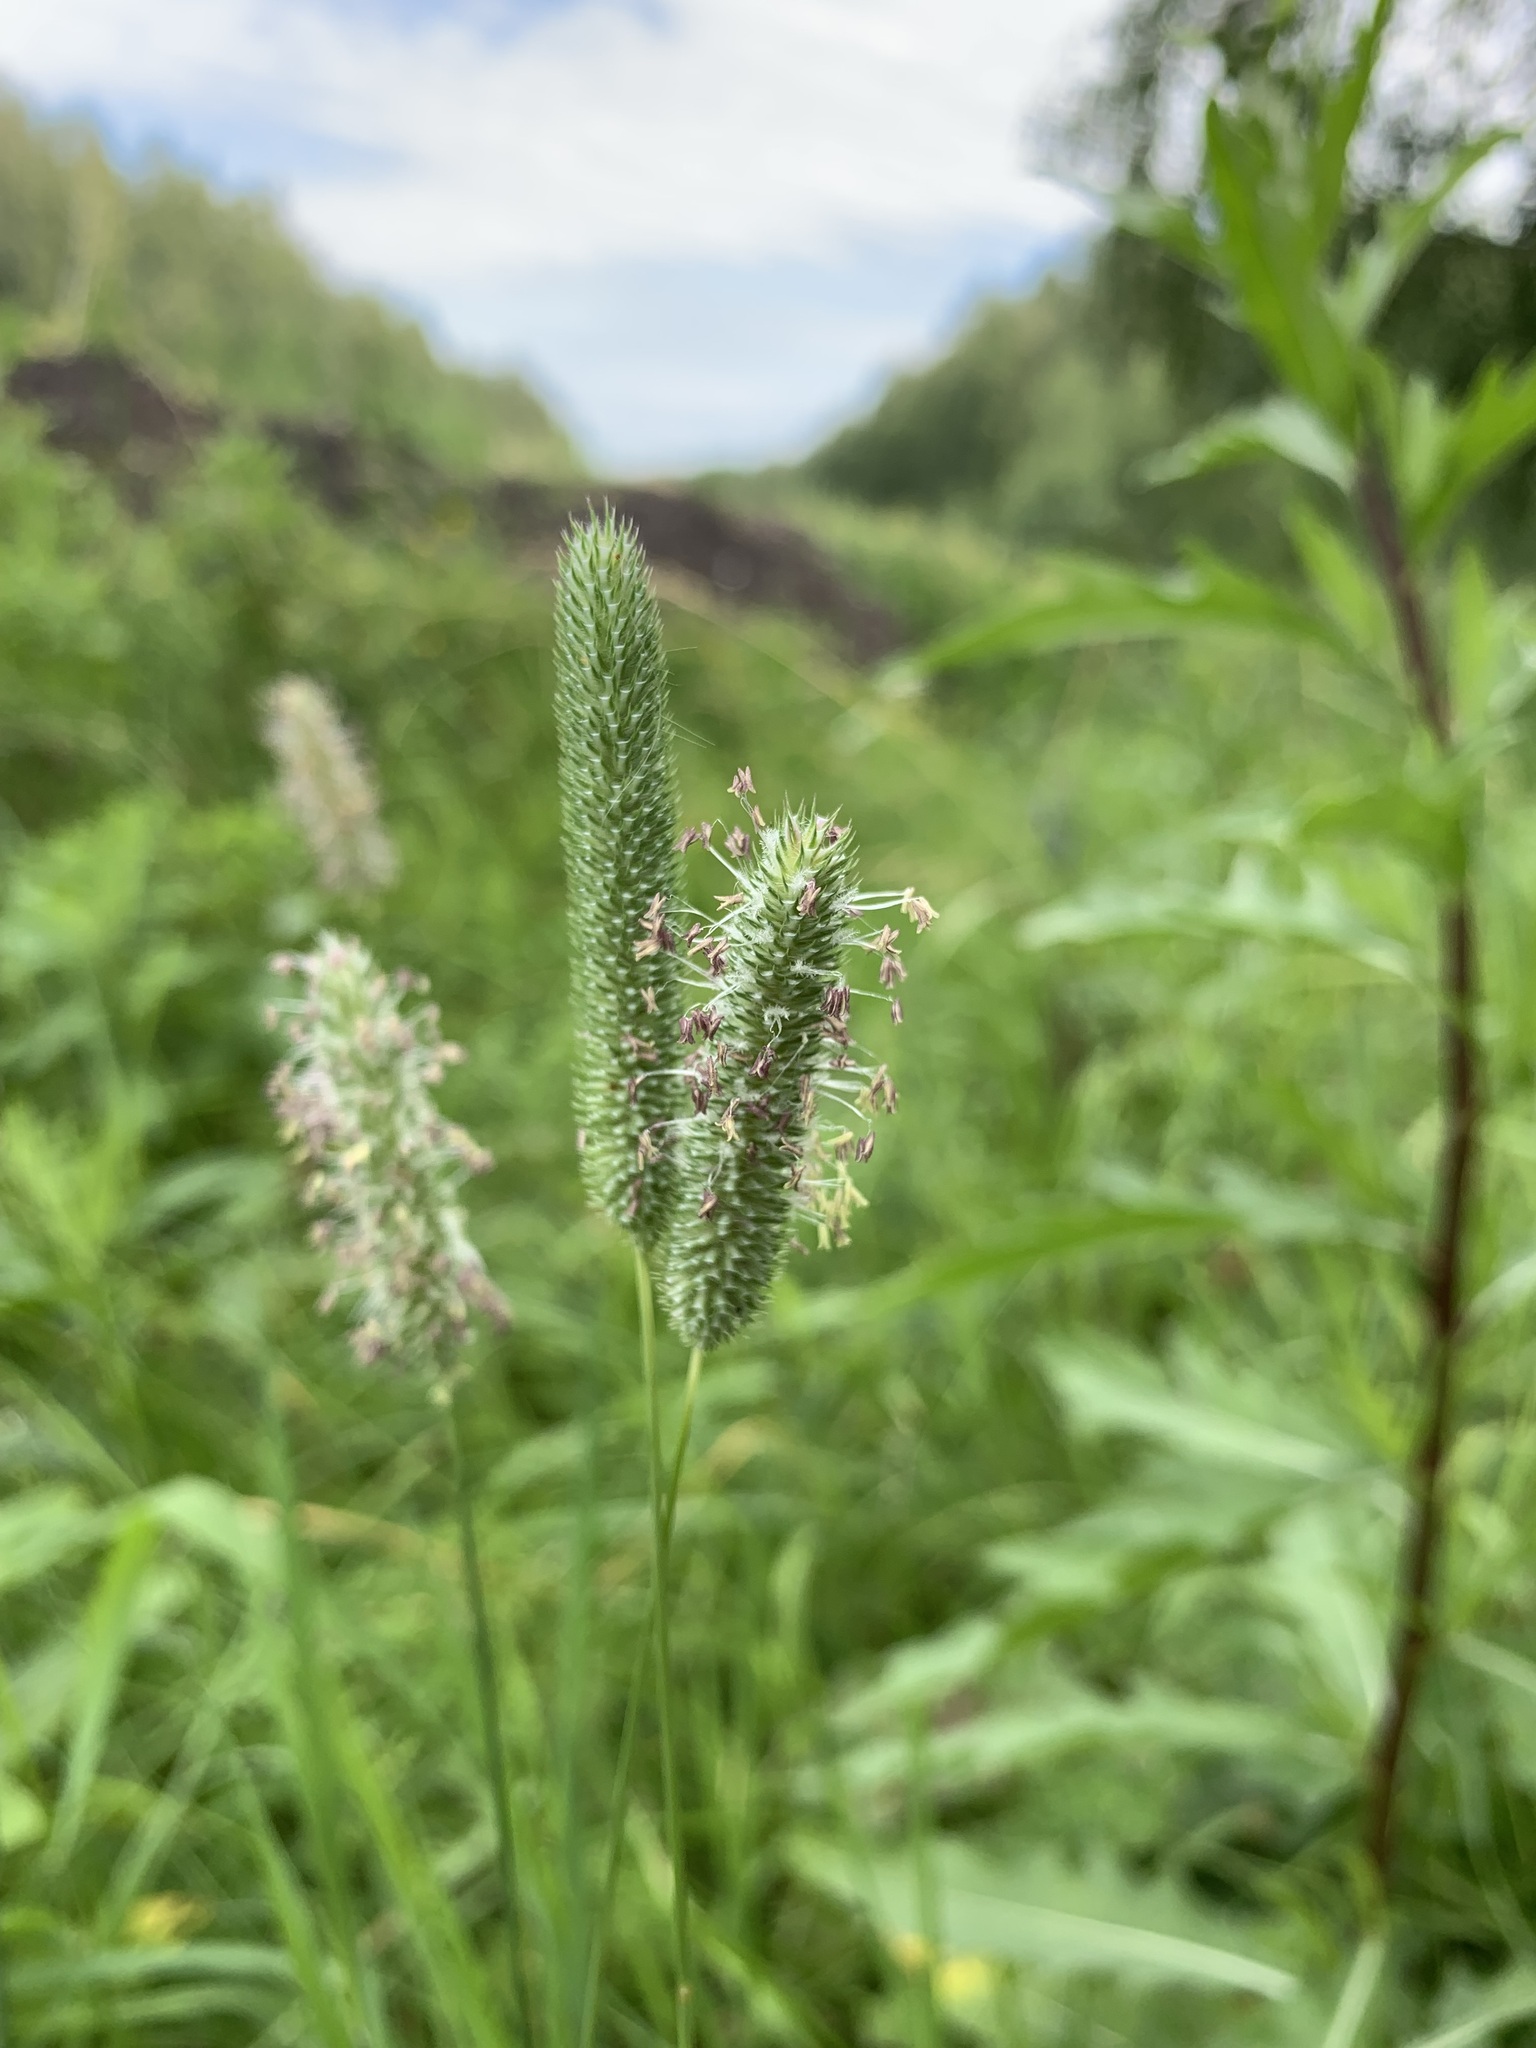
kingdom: Plantae
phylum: Tracheophyta
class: Liliopsida
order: Poales
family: Poaceae
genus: Phleum
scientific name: Phleum pratense
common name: Timothy grass
